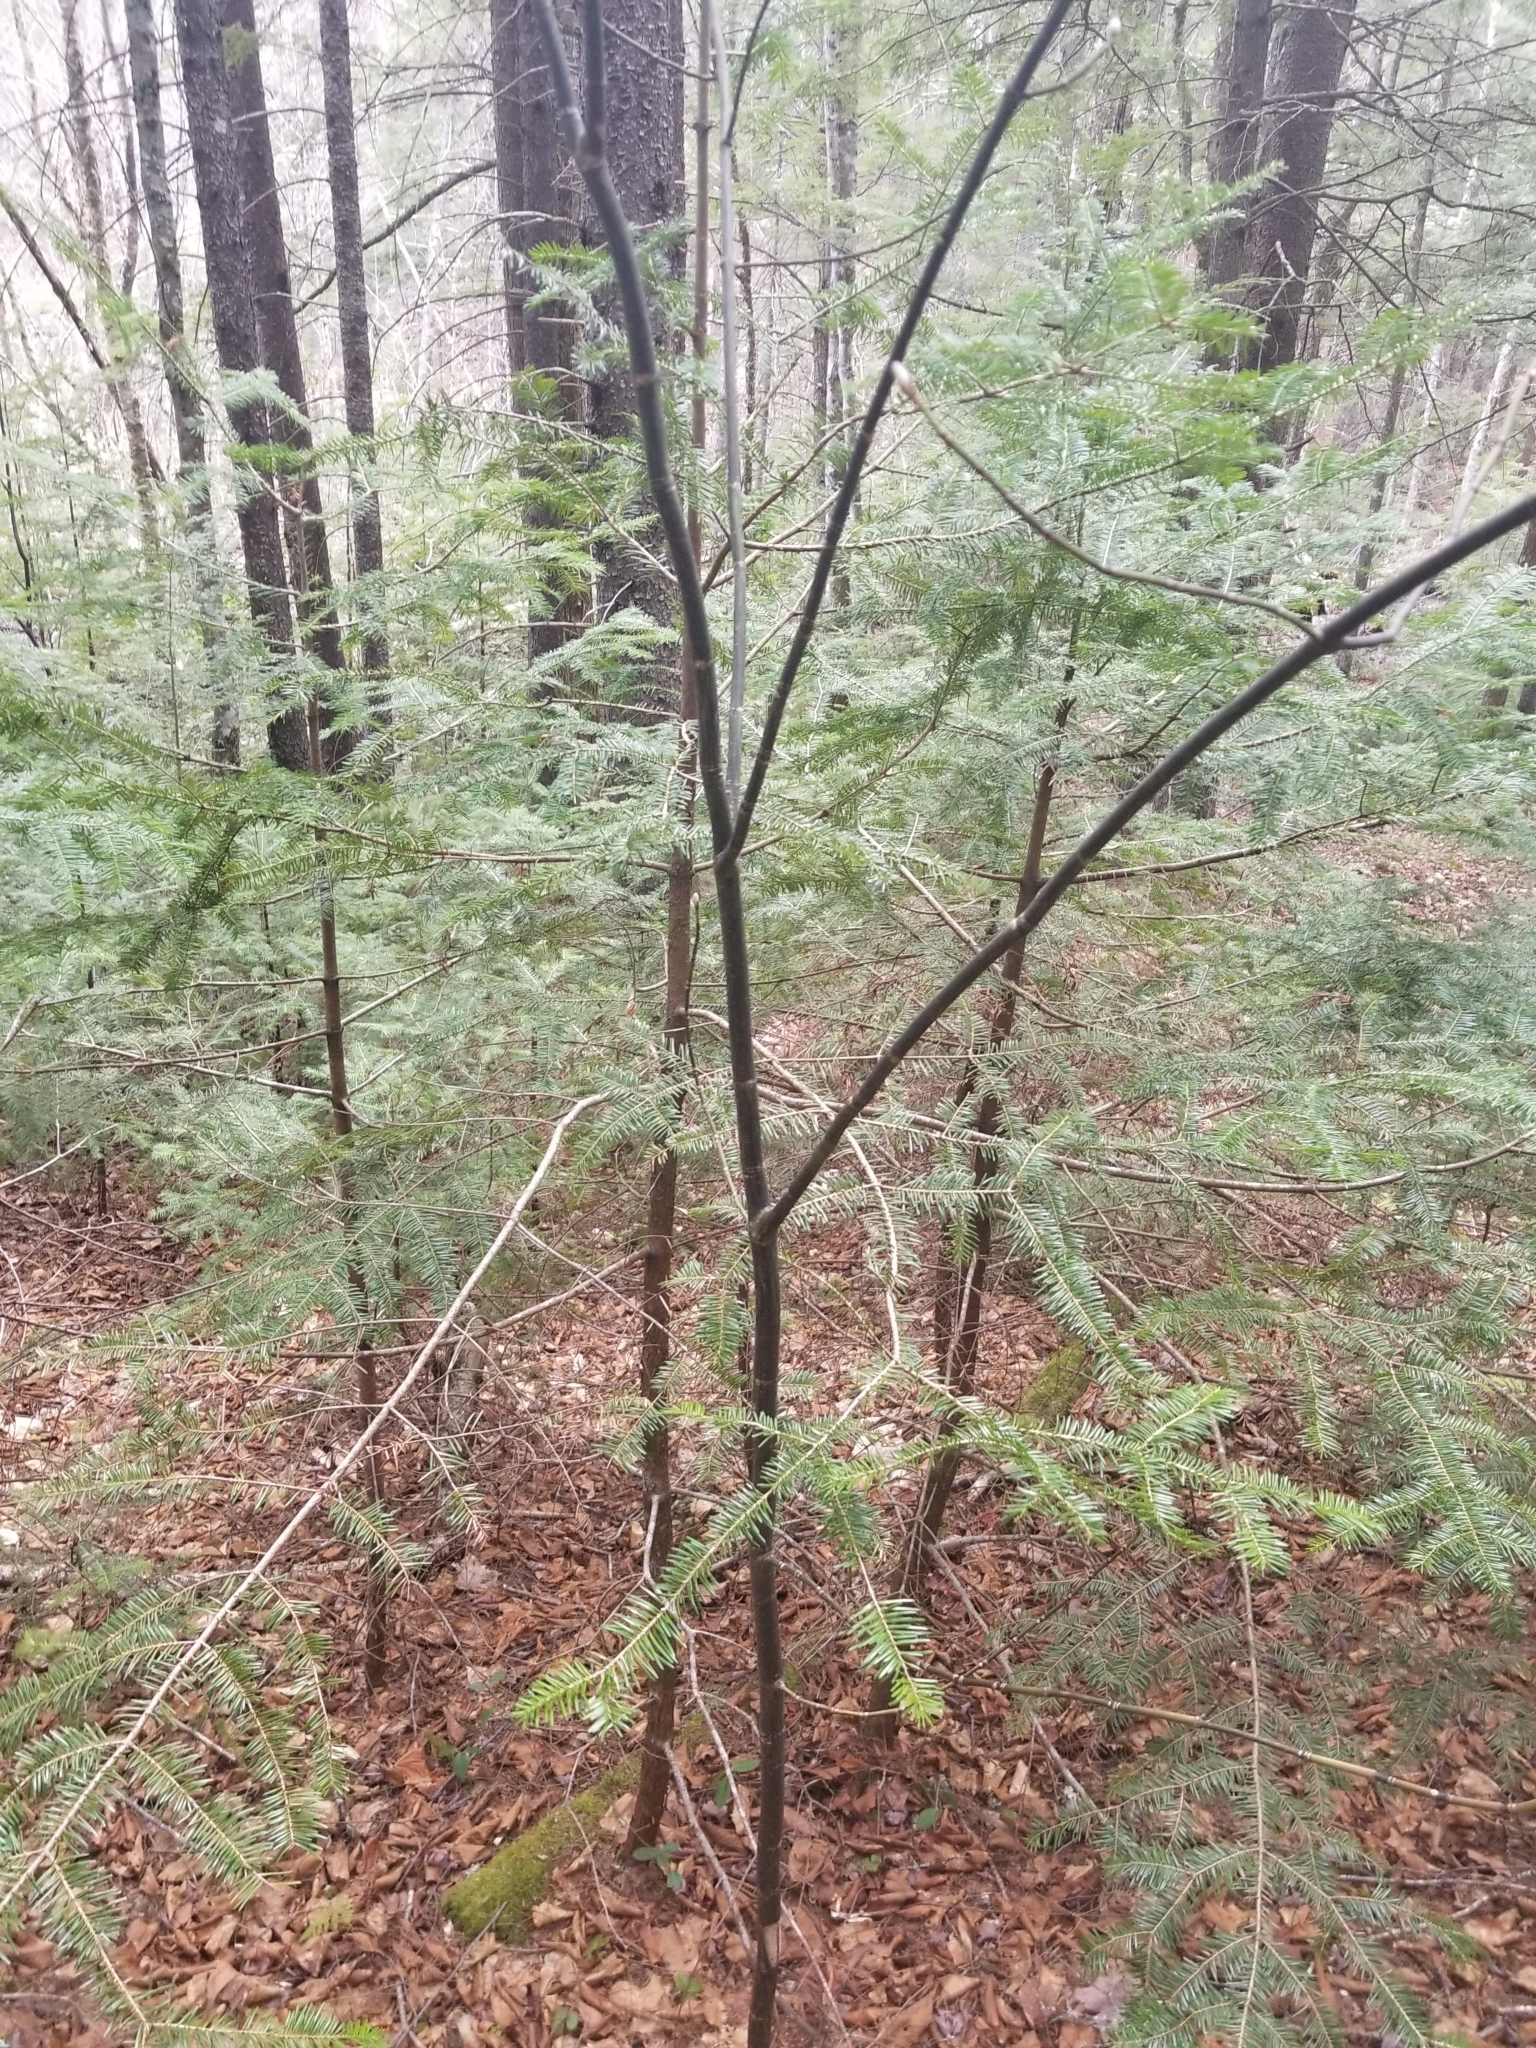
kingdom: Plantae
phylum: Tracheophyta
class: Magnoliopsida
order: Sapindales
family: Sapindaceae
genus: Acer
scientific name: Acer pensylvanicum
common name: Moosewood
